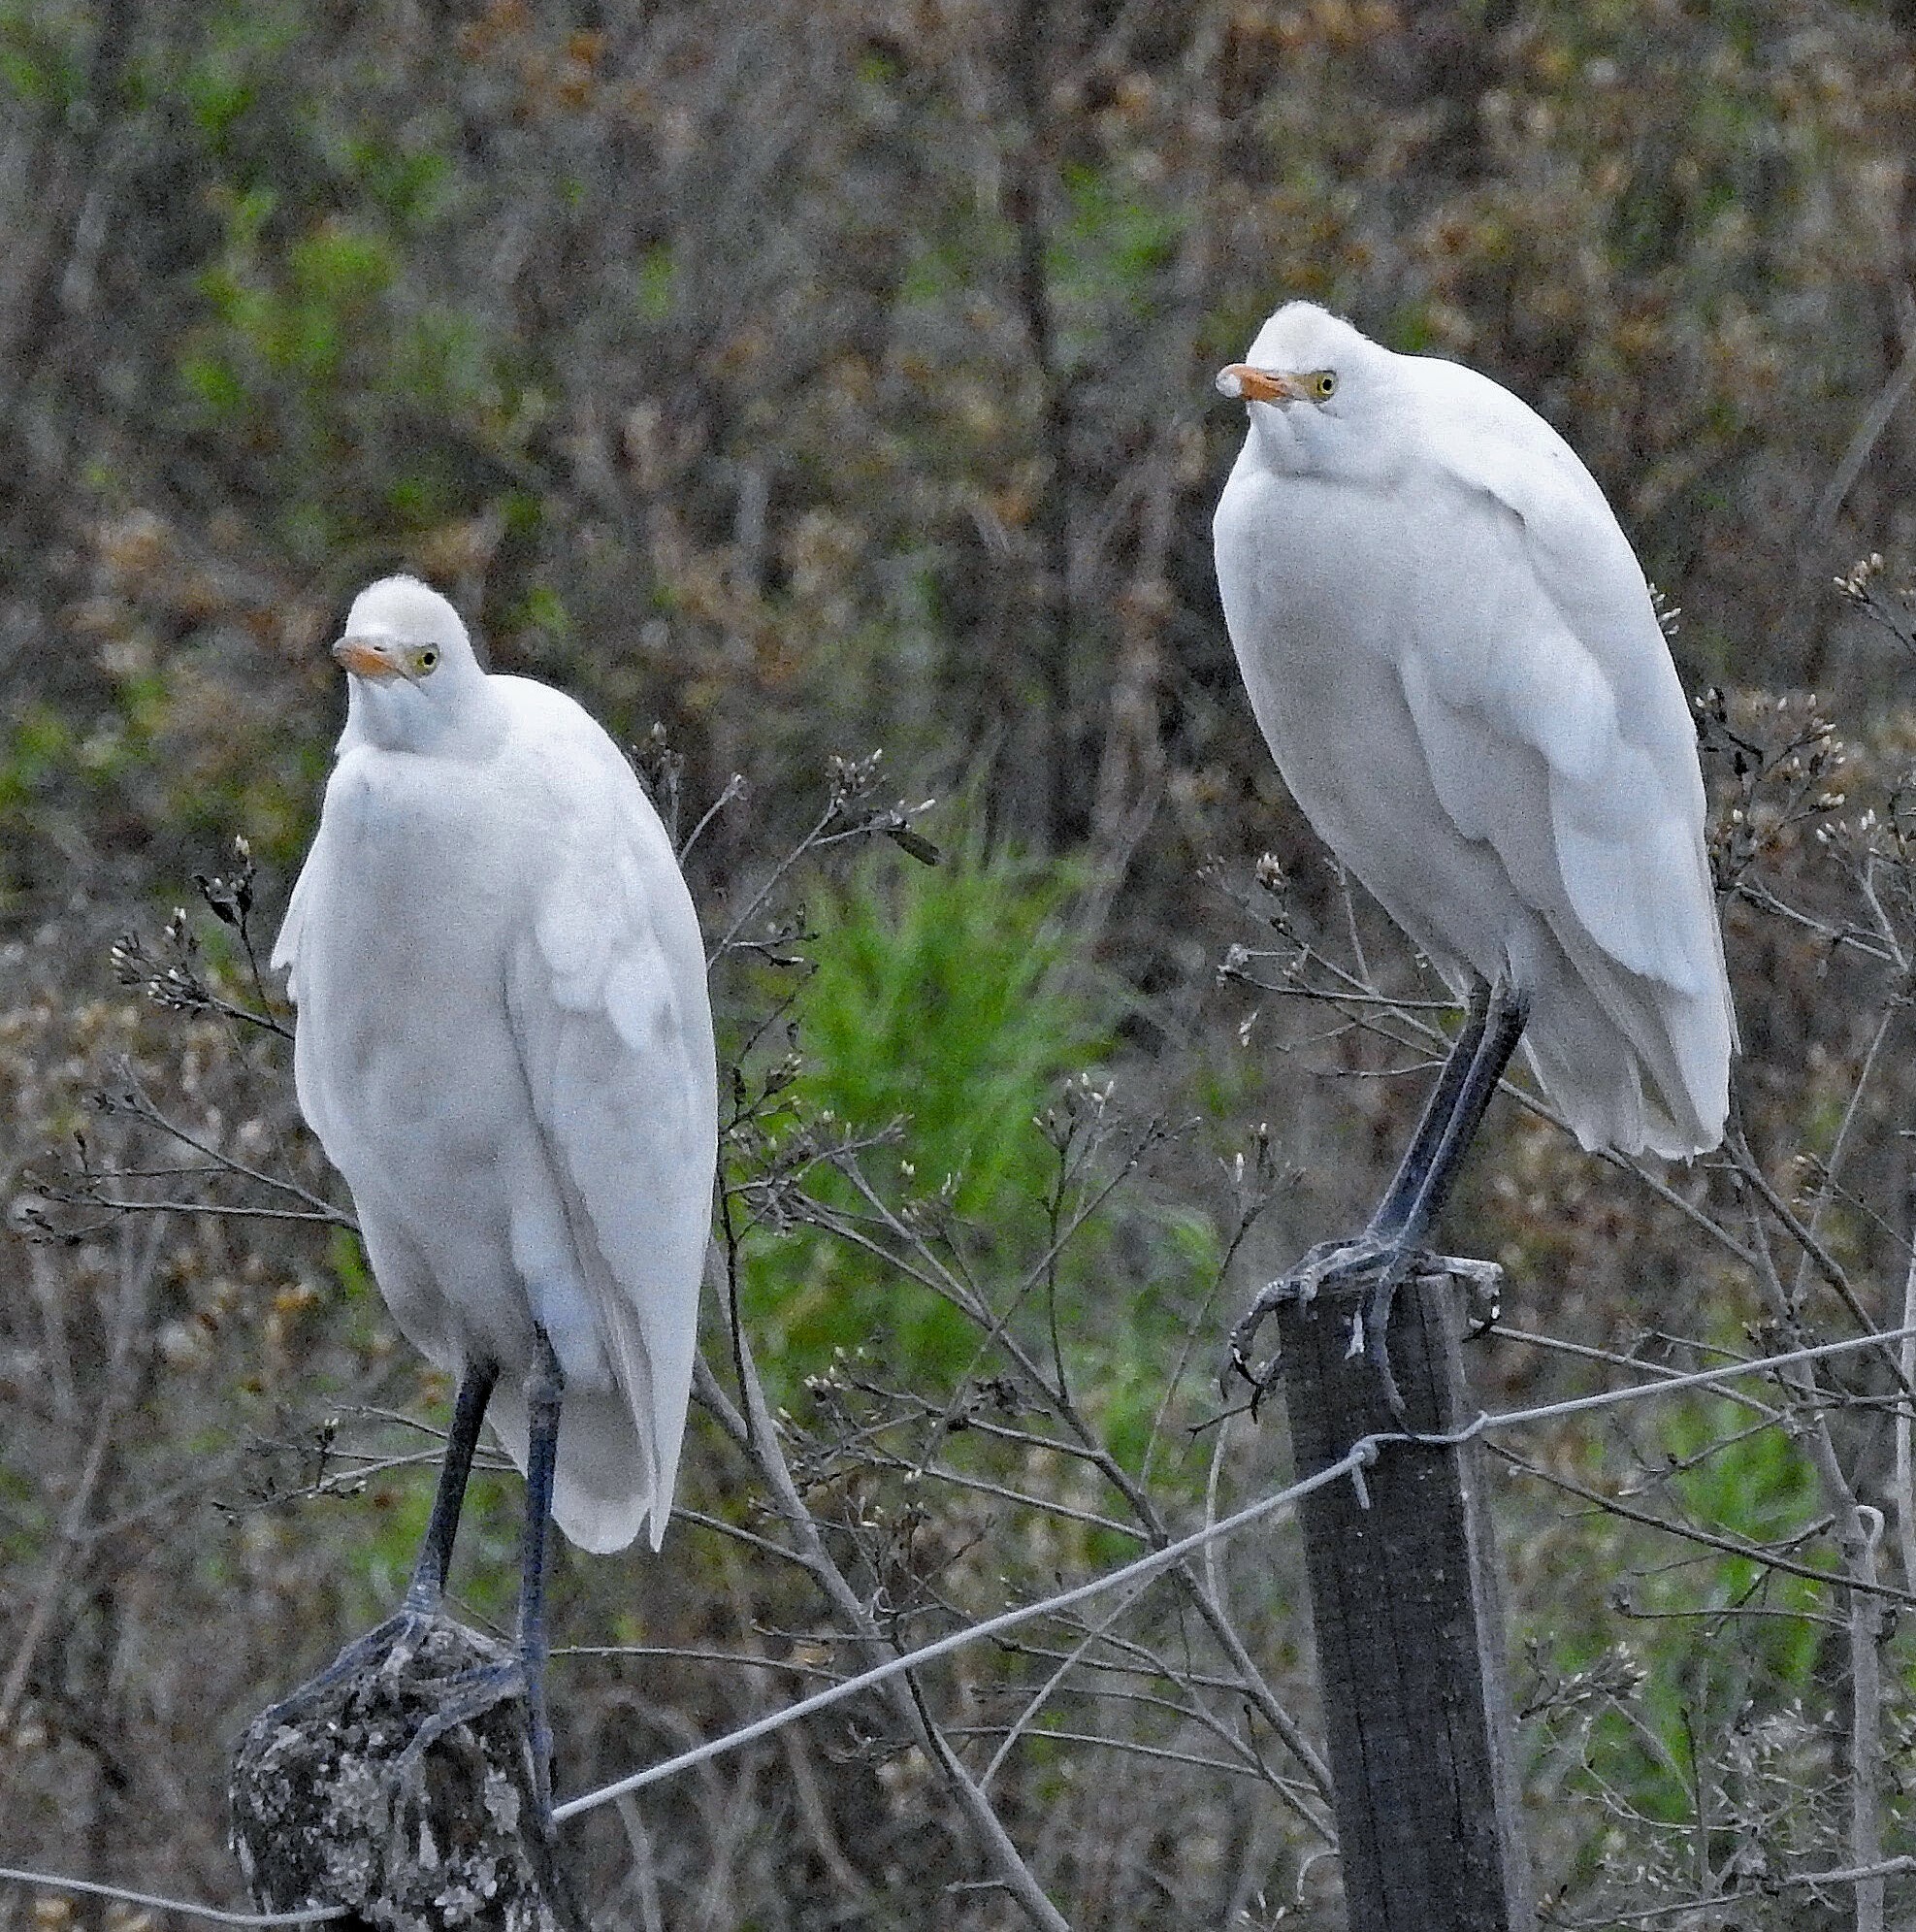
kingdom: Animalia
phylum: Chordata
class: Aves
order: Pelecaniformes
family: Ardeidae
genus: Bubulcus
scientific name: Bubulcus ibis
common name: Cattle egret
